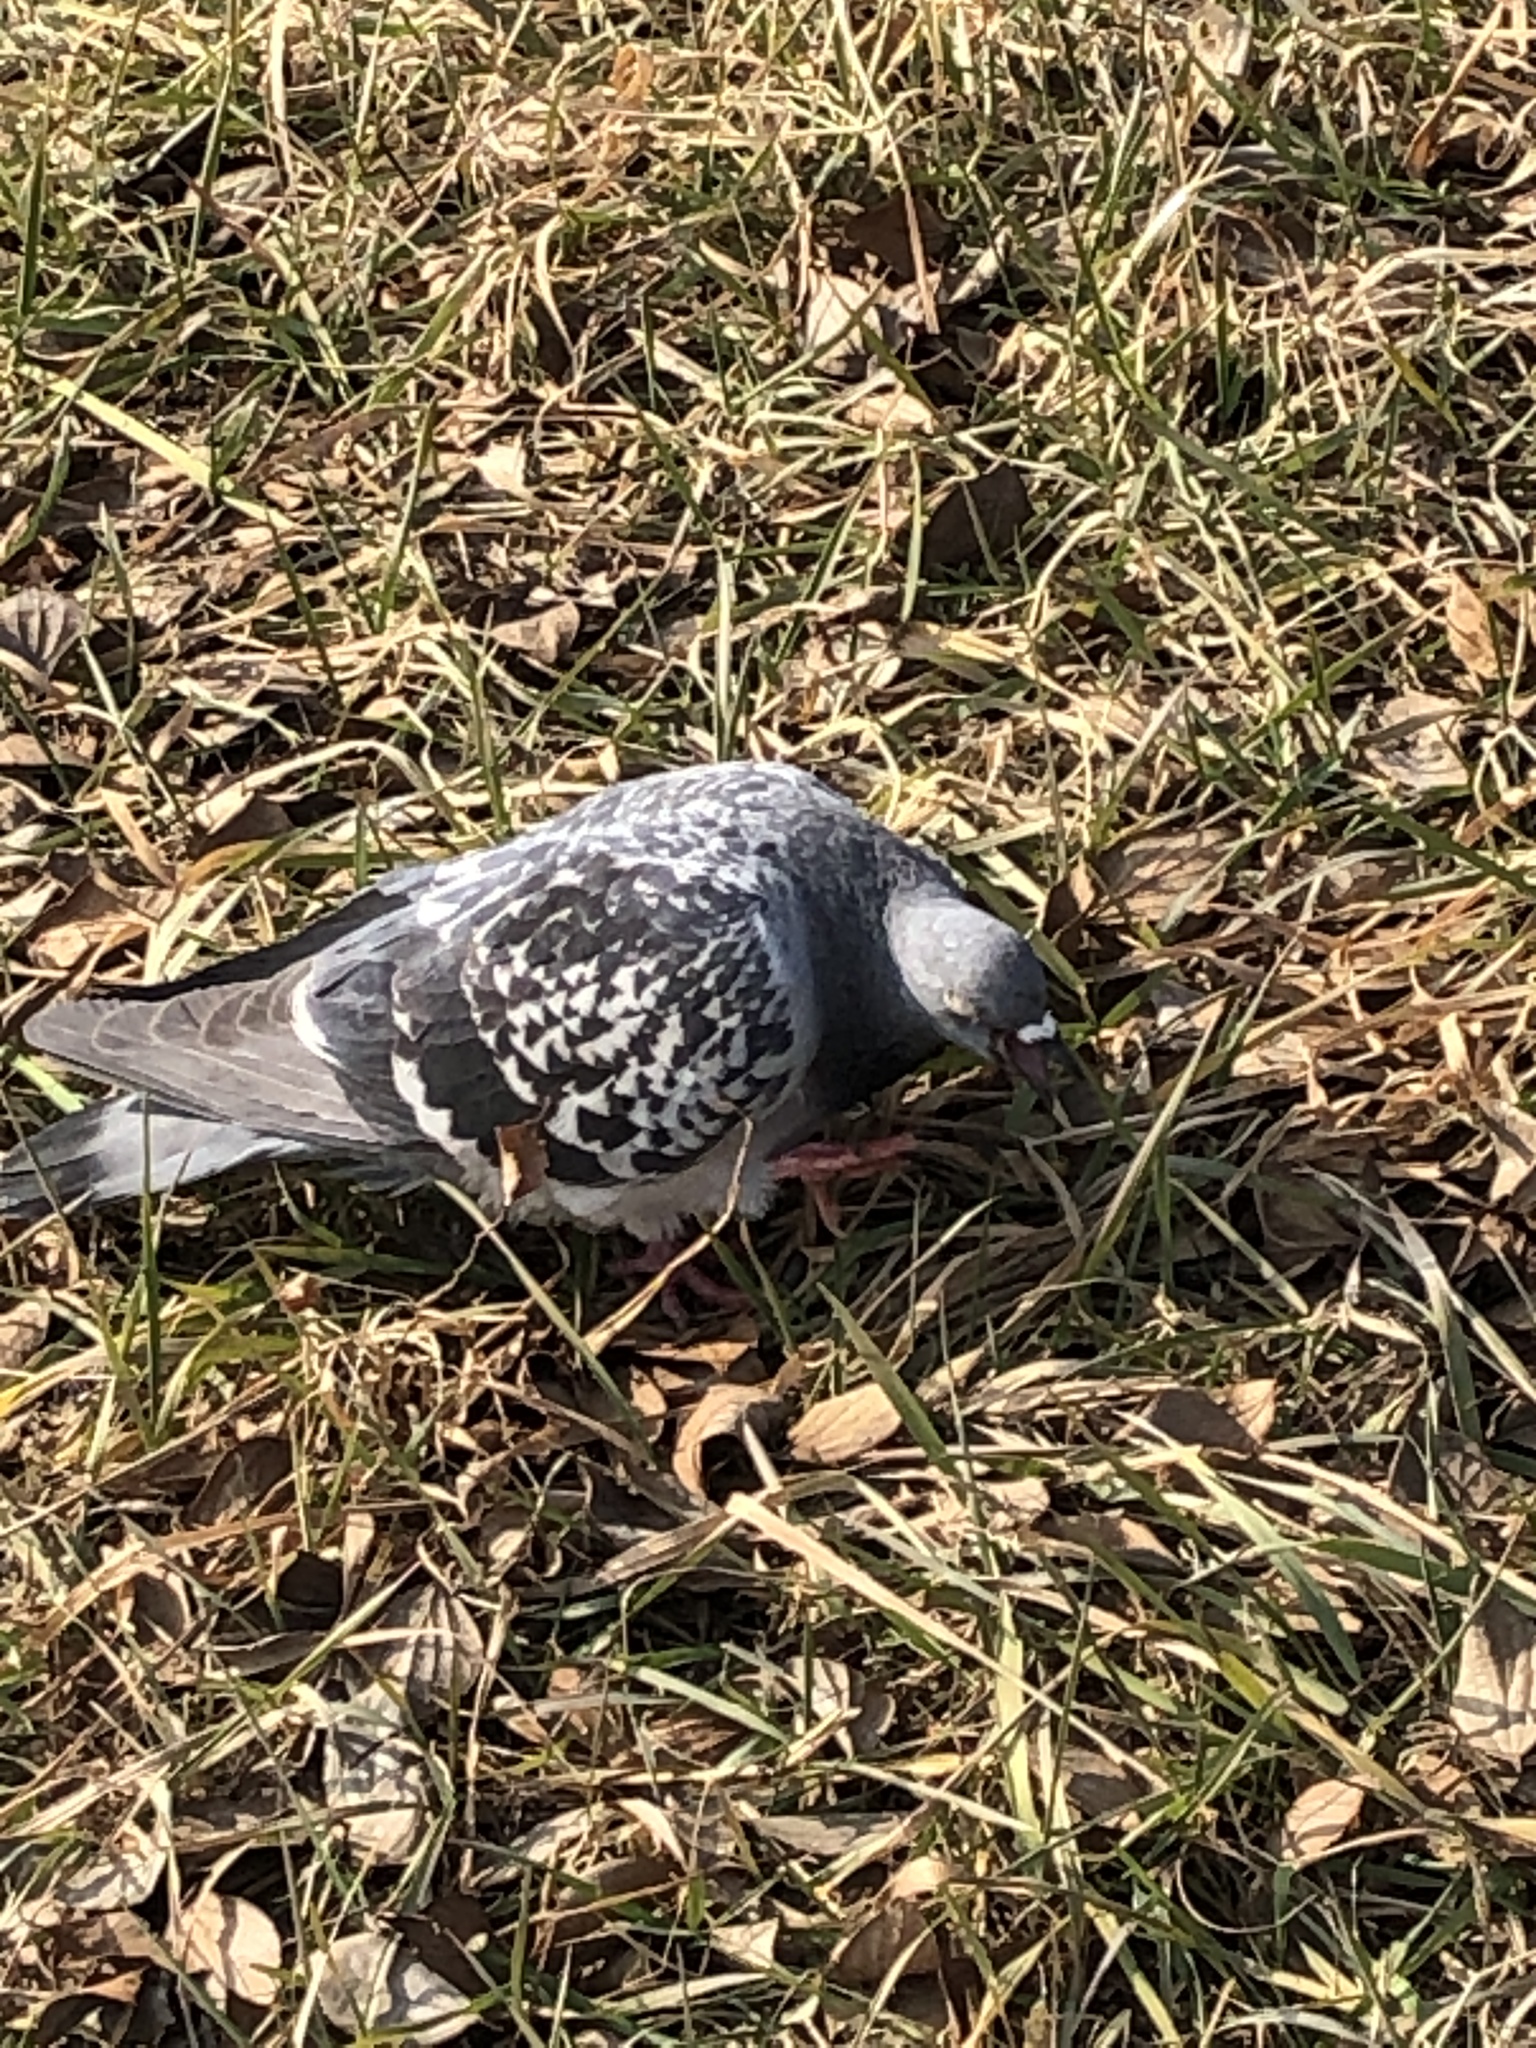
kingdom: Animalia
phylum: Chordata
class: Aves
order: Columbiformes
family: Columbidae
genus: Columba
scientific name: Columba livia
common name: Rock pigeon
